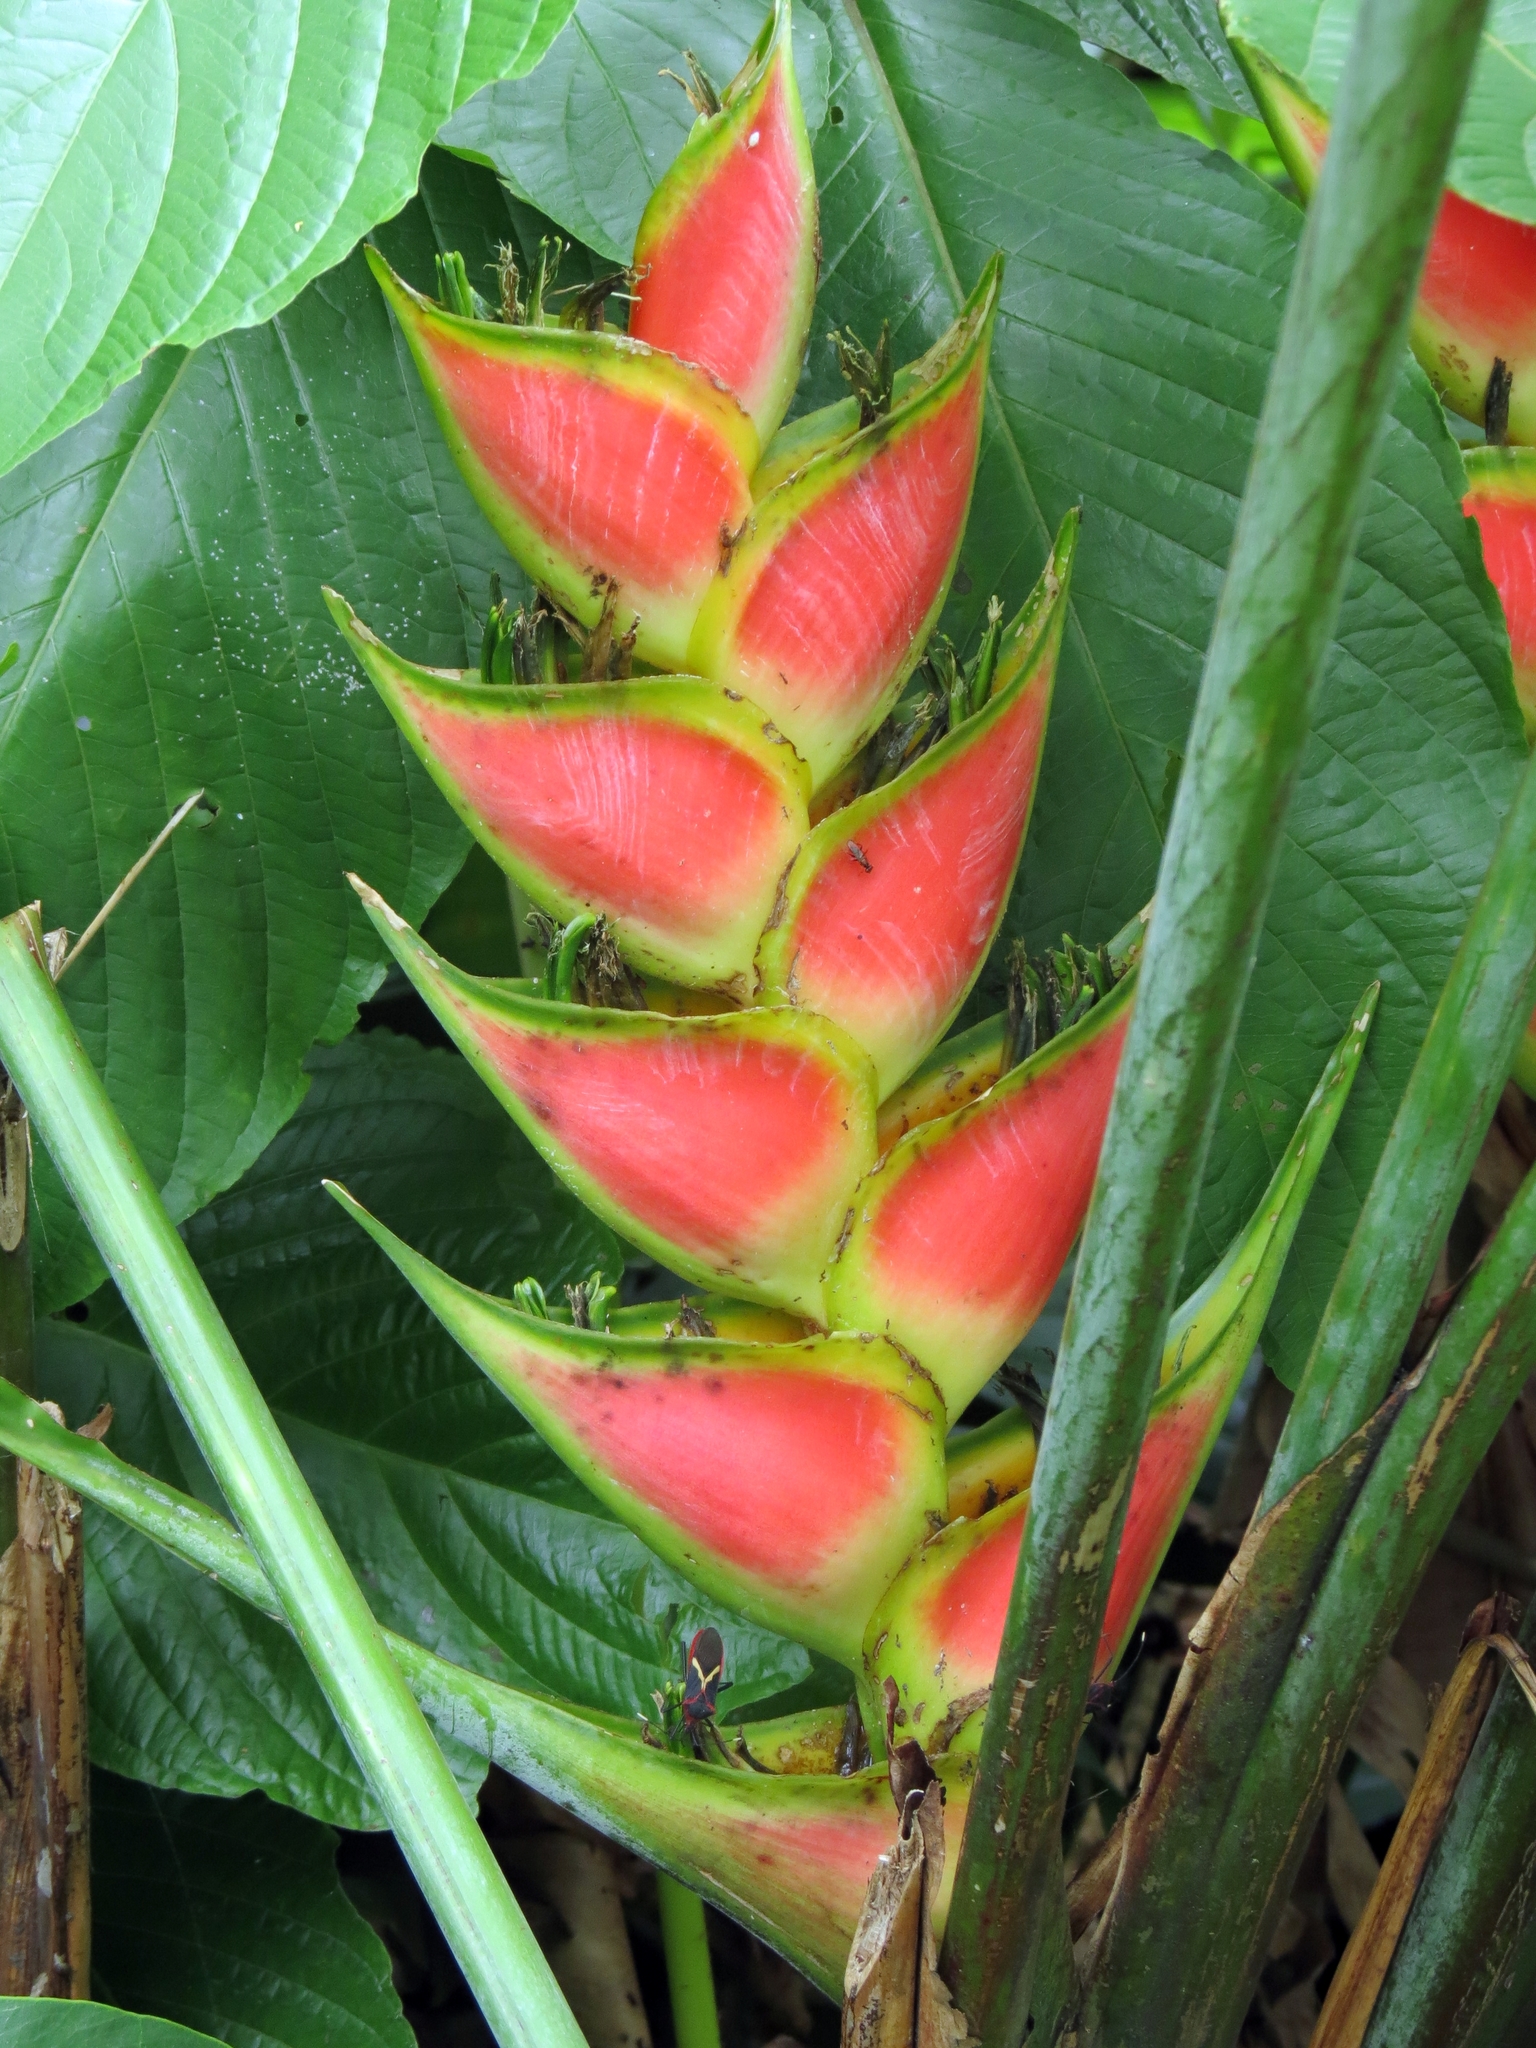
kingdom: Plantae
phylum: Tracheophyta
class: Liliopsida
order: Zingiberales
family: Heliconiaceae
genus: Heliconia
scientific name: Heliconia wagneriana
